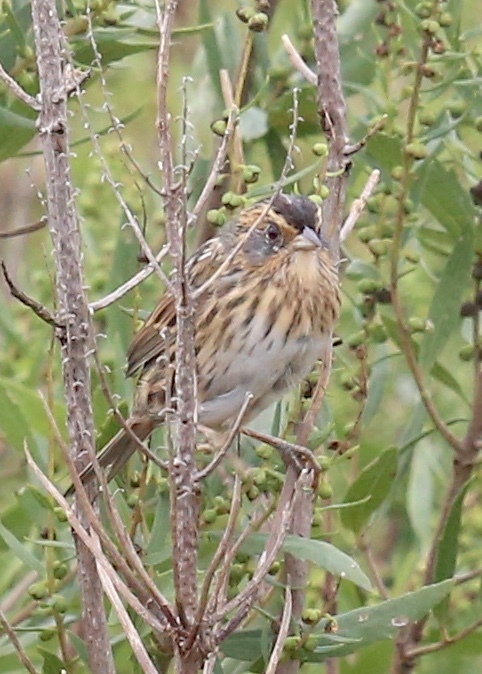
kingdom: Animalia
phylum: Chordata
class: Aves
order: Passeriformes
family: Passerellidae
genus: Ammospiza
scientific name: Ammospiza caudacuta
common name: Saltmarsh sparrow
